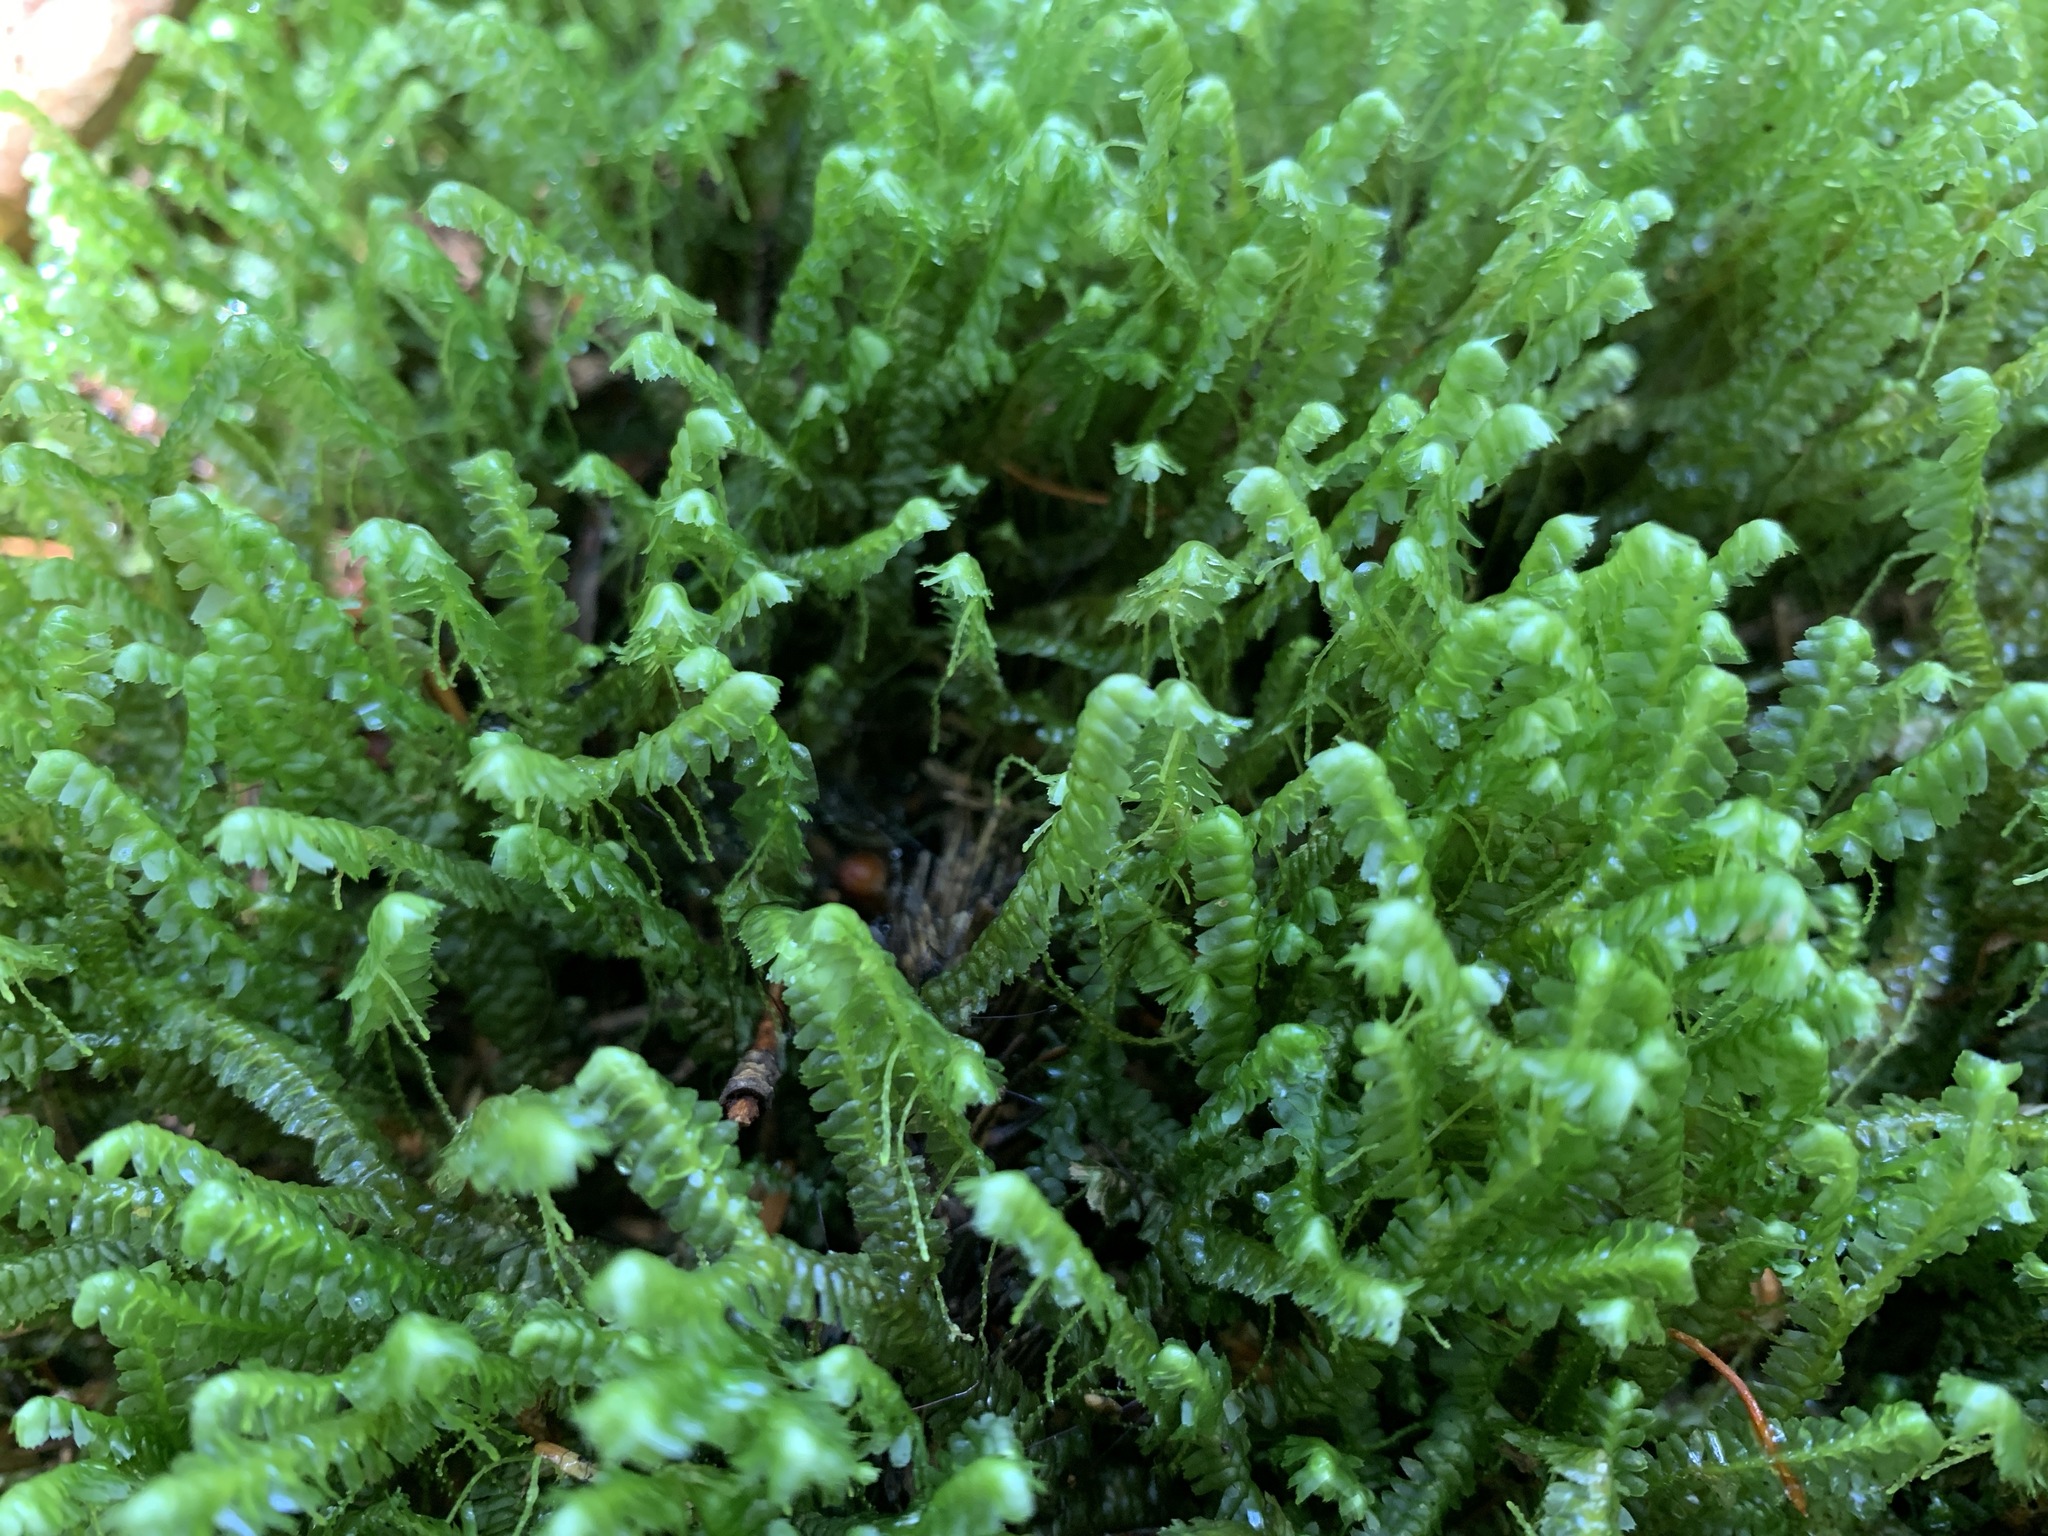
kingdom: Plantae
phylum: Marchantiophyta
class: Jungermanniopsida
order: Jungermanniales
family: Lepidoziaceae
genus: Bazzania
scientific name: Bazzania trilobata
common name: Three-lobed whipwort
